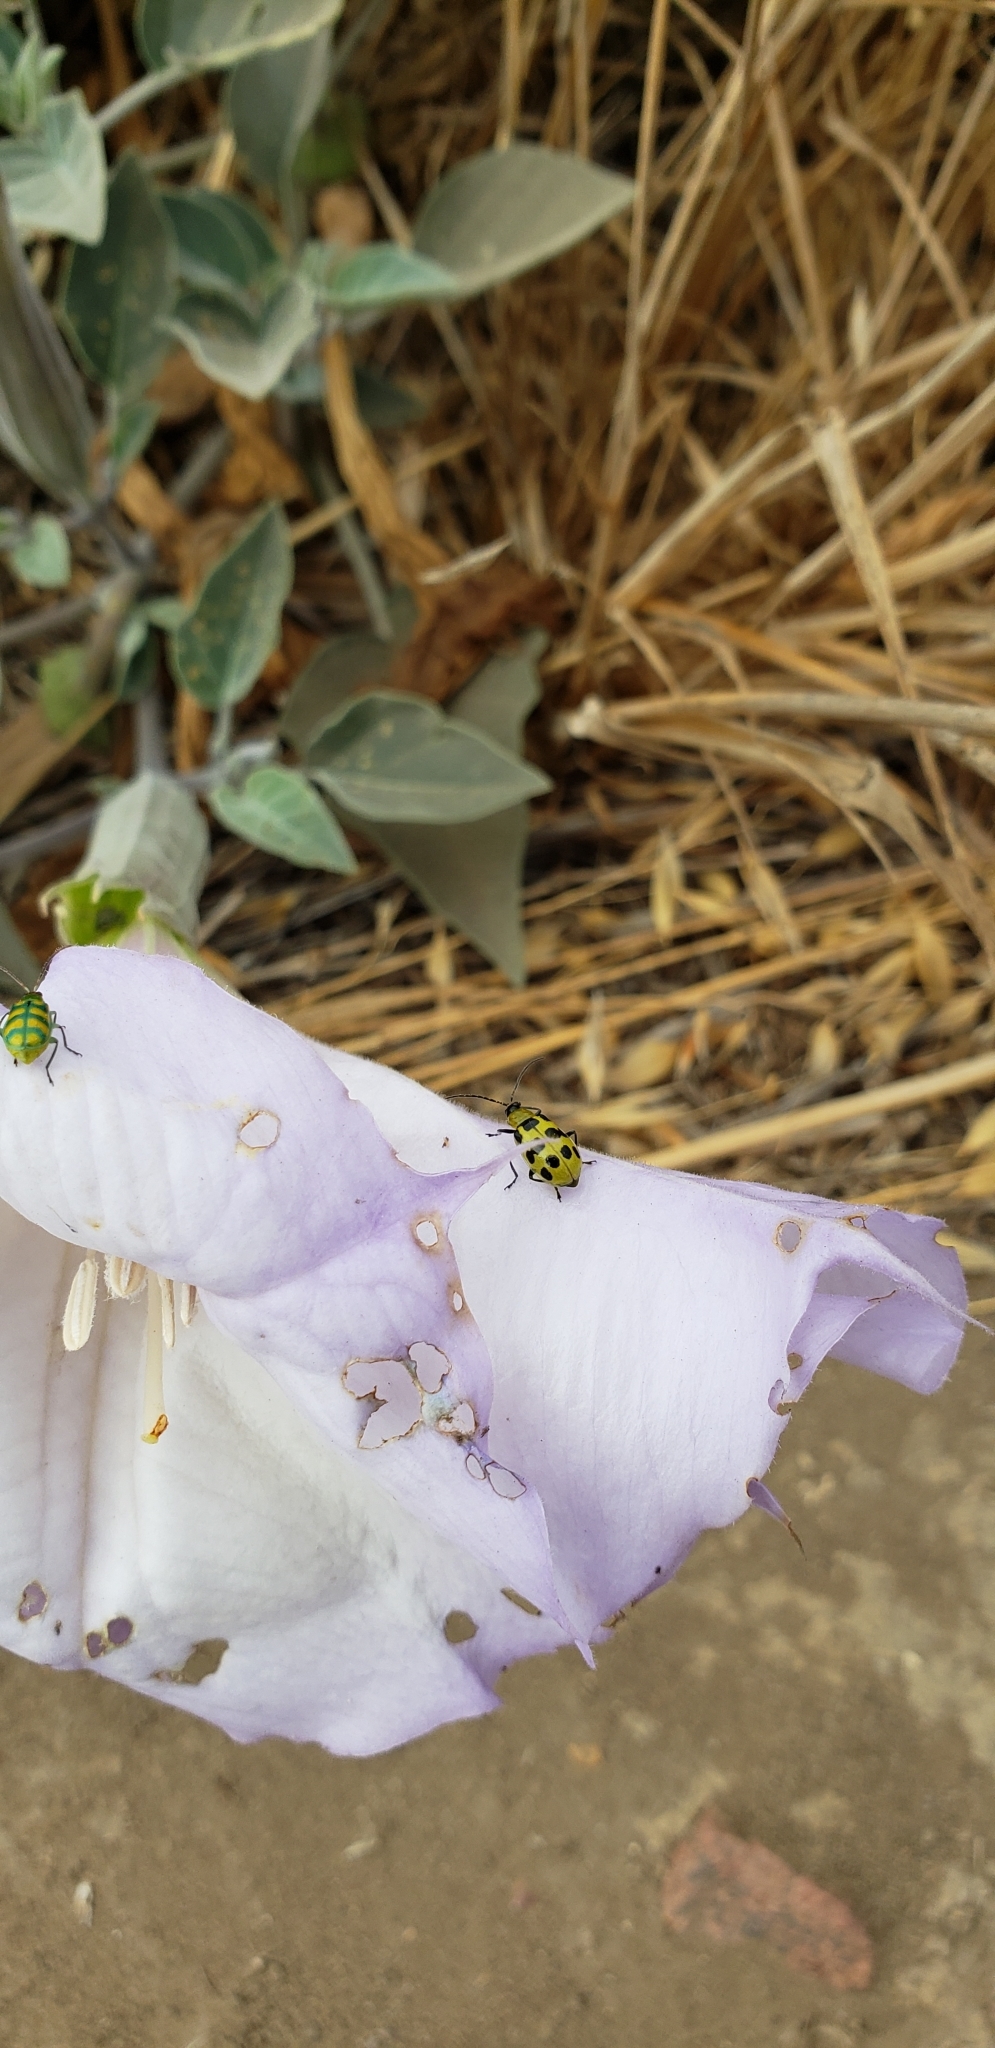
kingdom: Animalia
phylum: Arthropoda
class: Insecta
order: Coleoptera
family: Chrysomelidae
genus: Diabrotica
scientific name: Diabrotica undecimpunctata
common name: Spotted cucumber beetle
